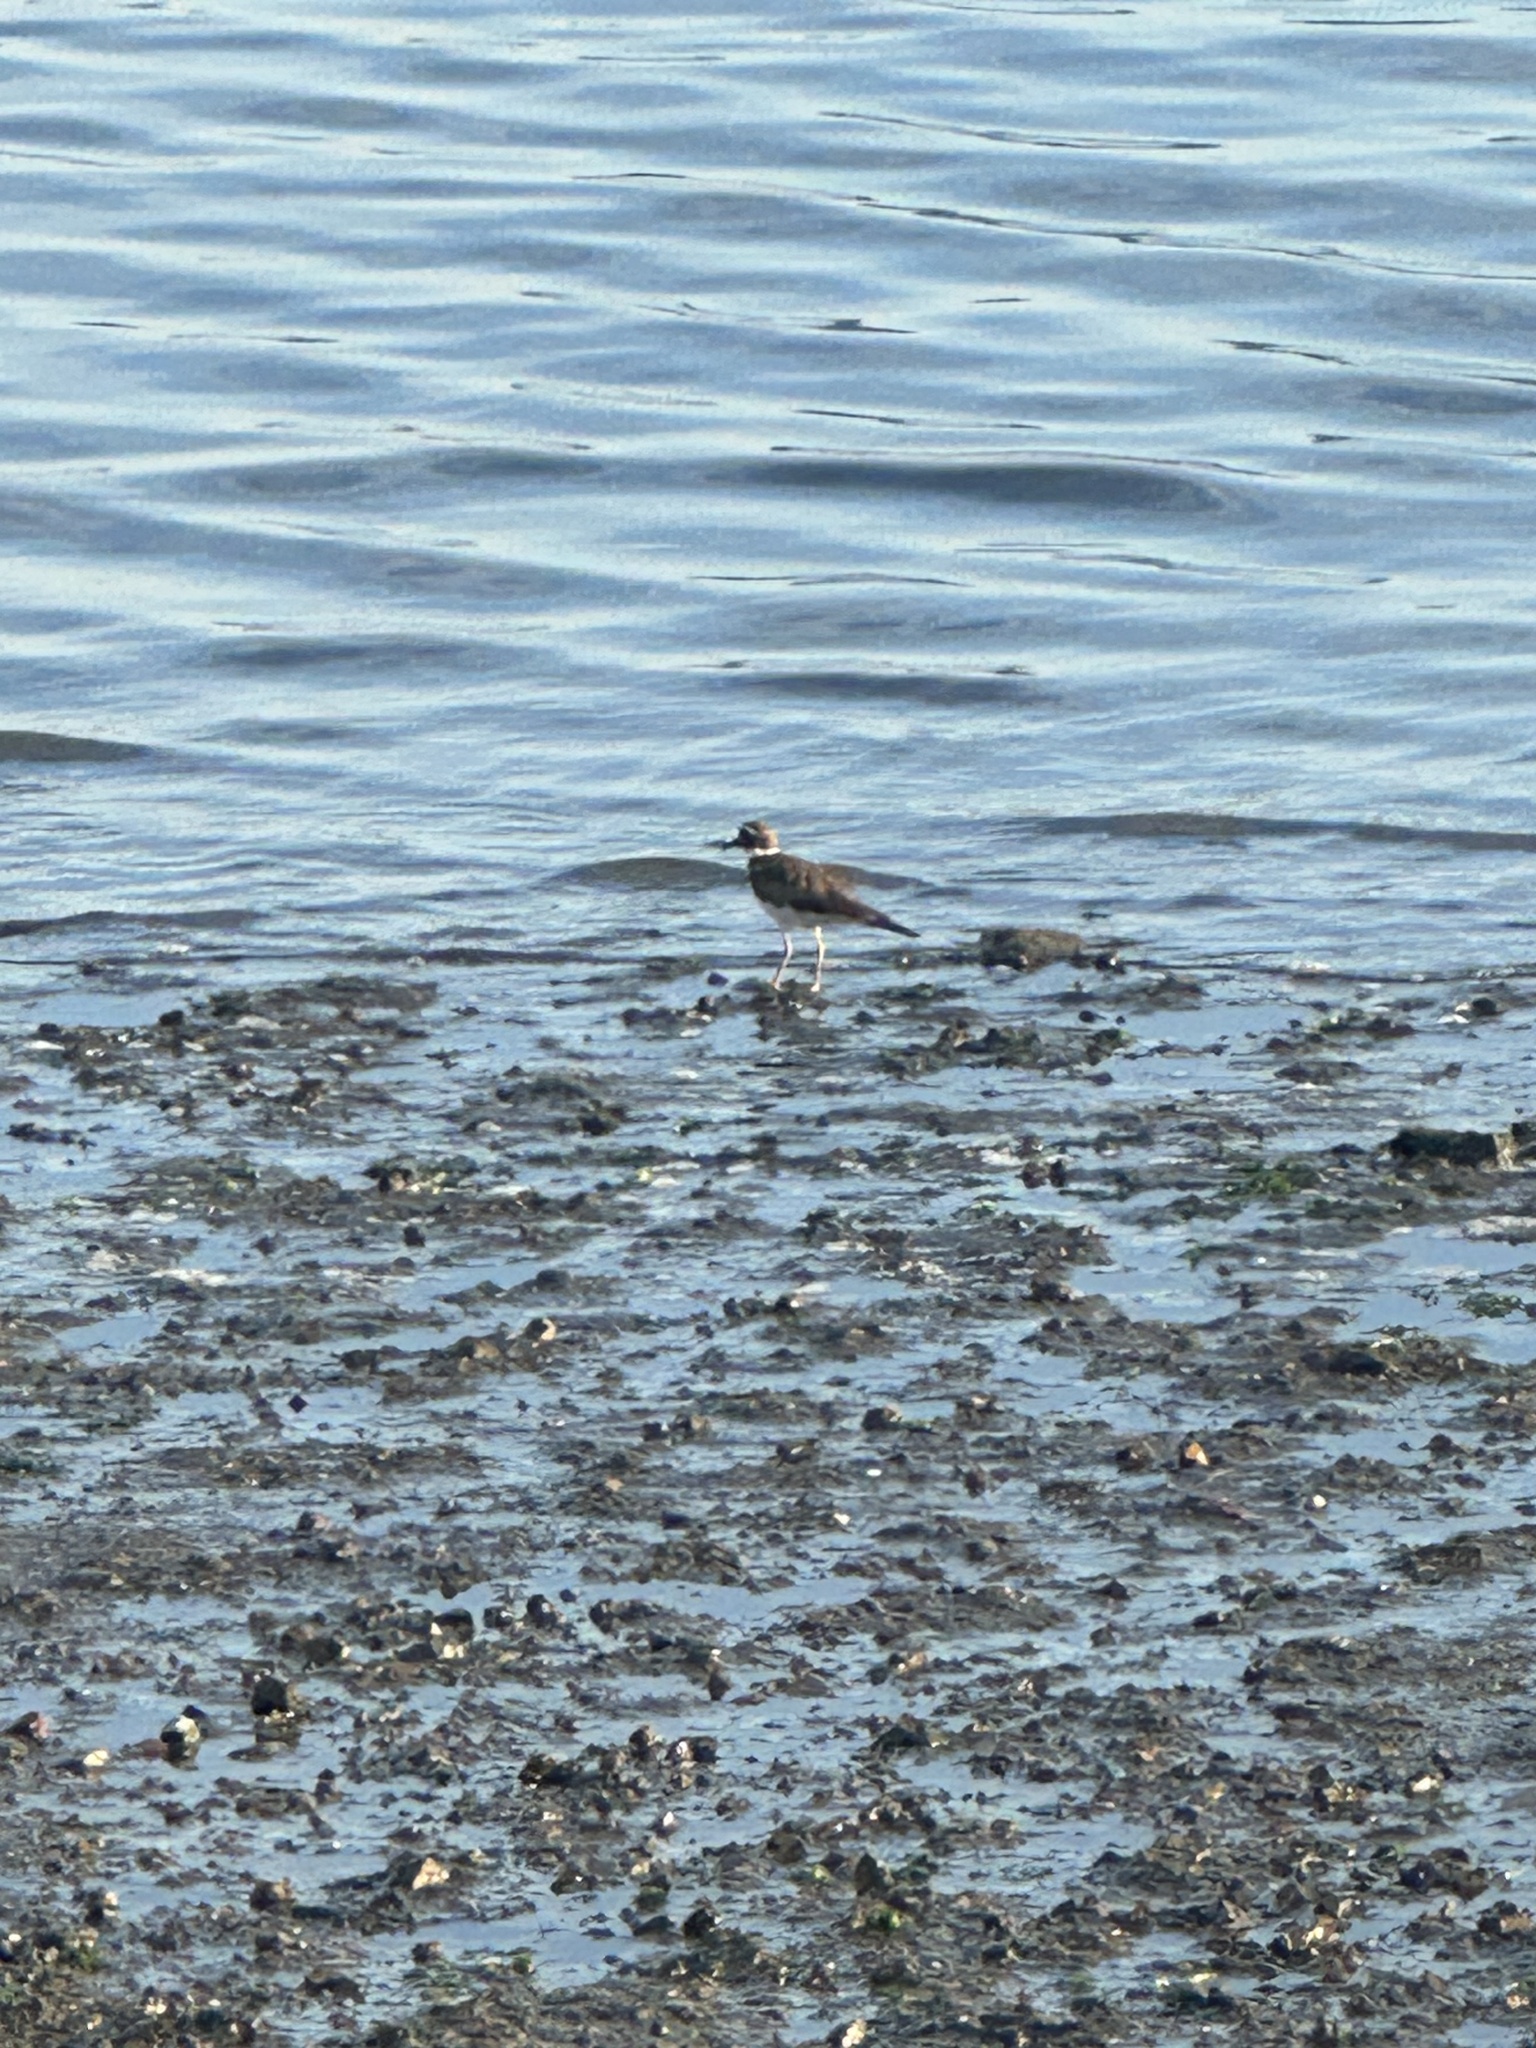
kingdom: Animalia
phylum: Chordata
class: Aves
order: Charadriiformes
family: Charadriidae
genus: Charadrius
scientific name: Charadrius vociferus
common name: Killdeer
